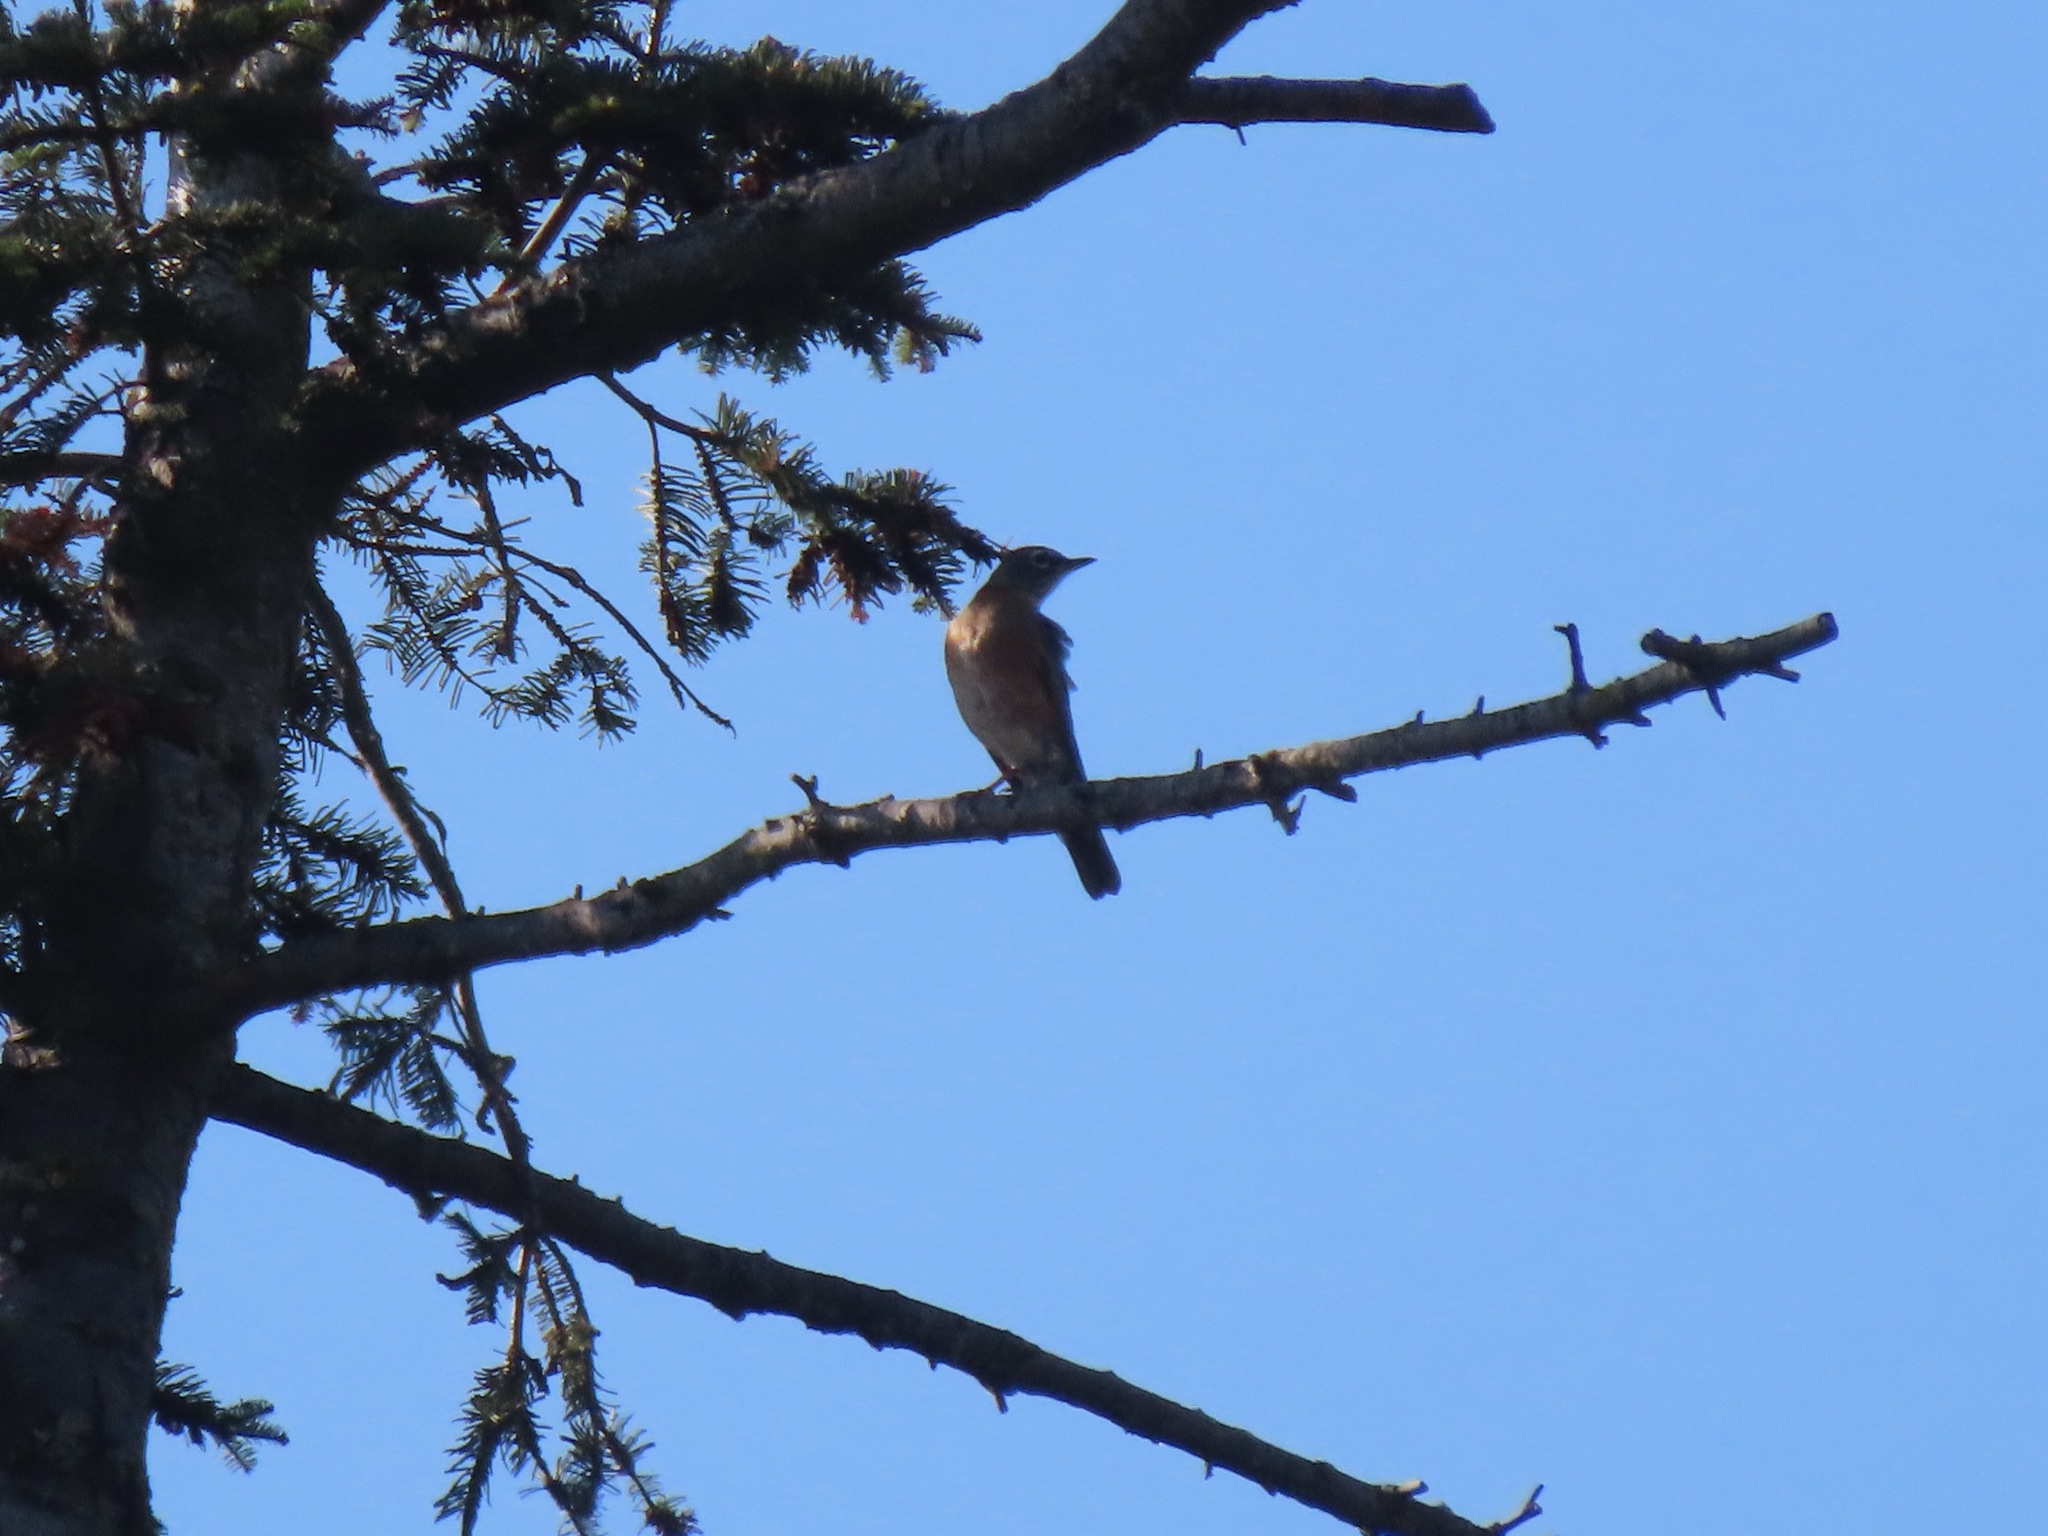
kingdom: Animalia
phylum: Chordata
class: Aves
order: Passeriformes
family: Turdidae
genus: Turdus
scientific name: Turdus migratorius
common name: American robin
